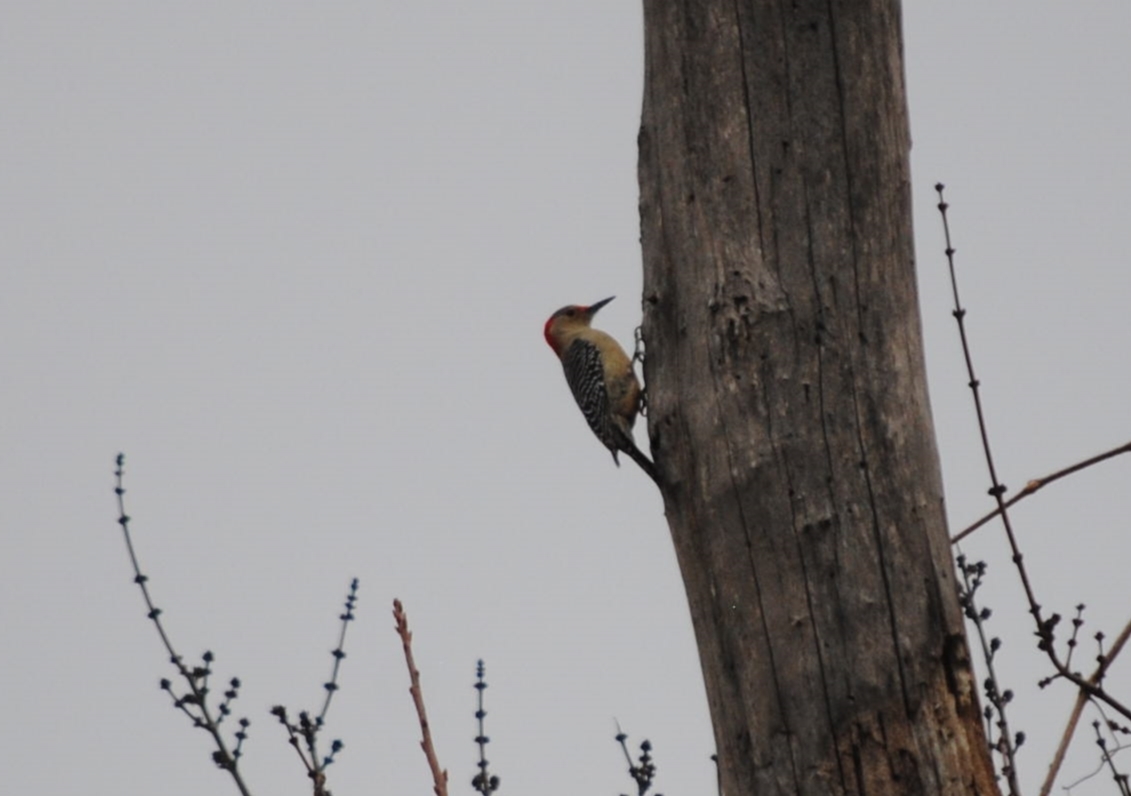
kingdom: Animalia
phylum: Chordata
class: Aves
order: Piciformes
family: Picidae
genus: Melanerpes
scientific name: Melanerpes carolinus
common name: Red-bellied woodpecker
